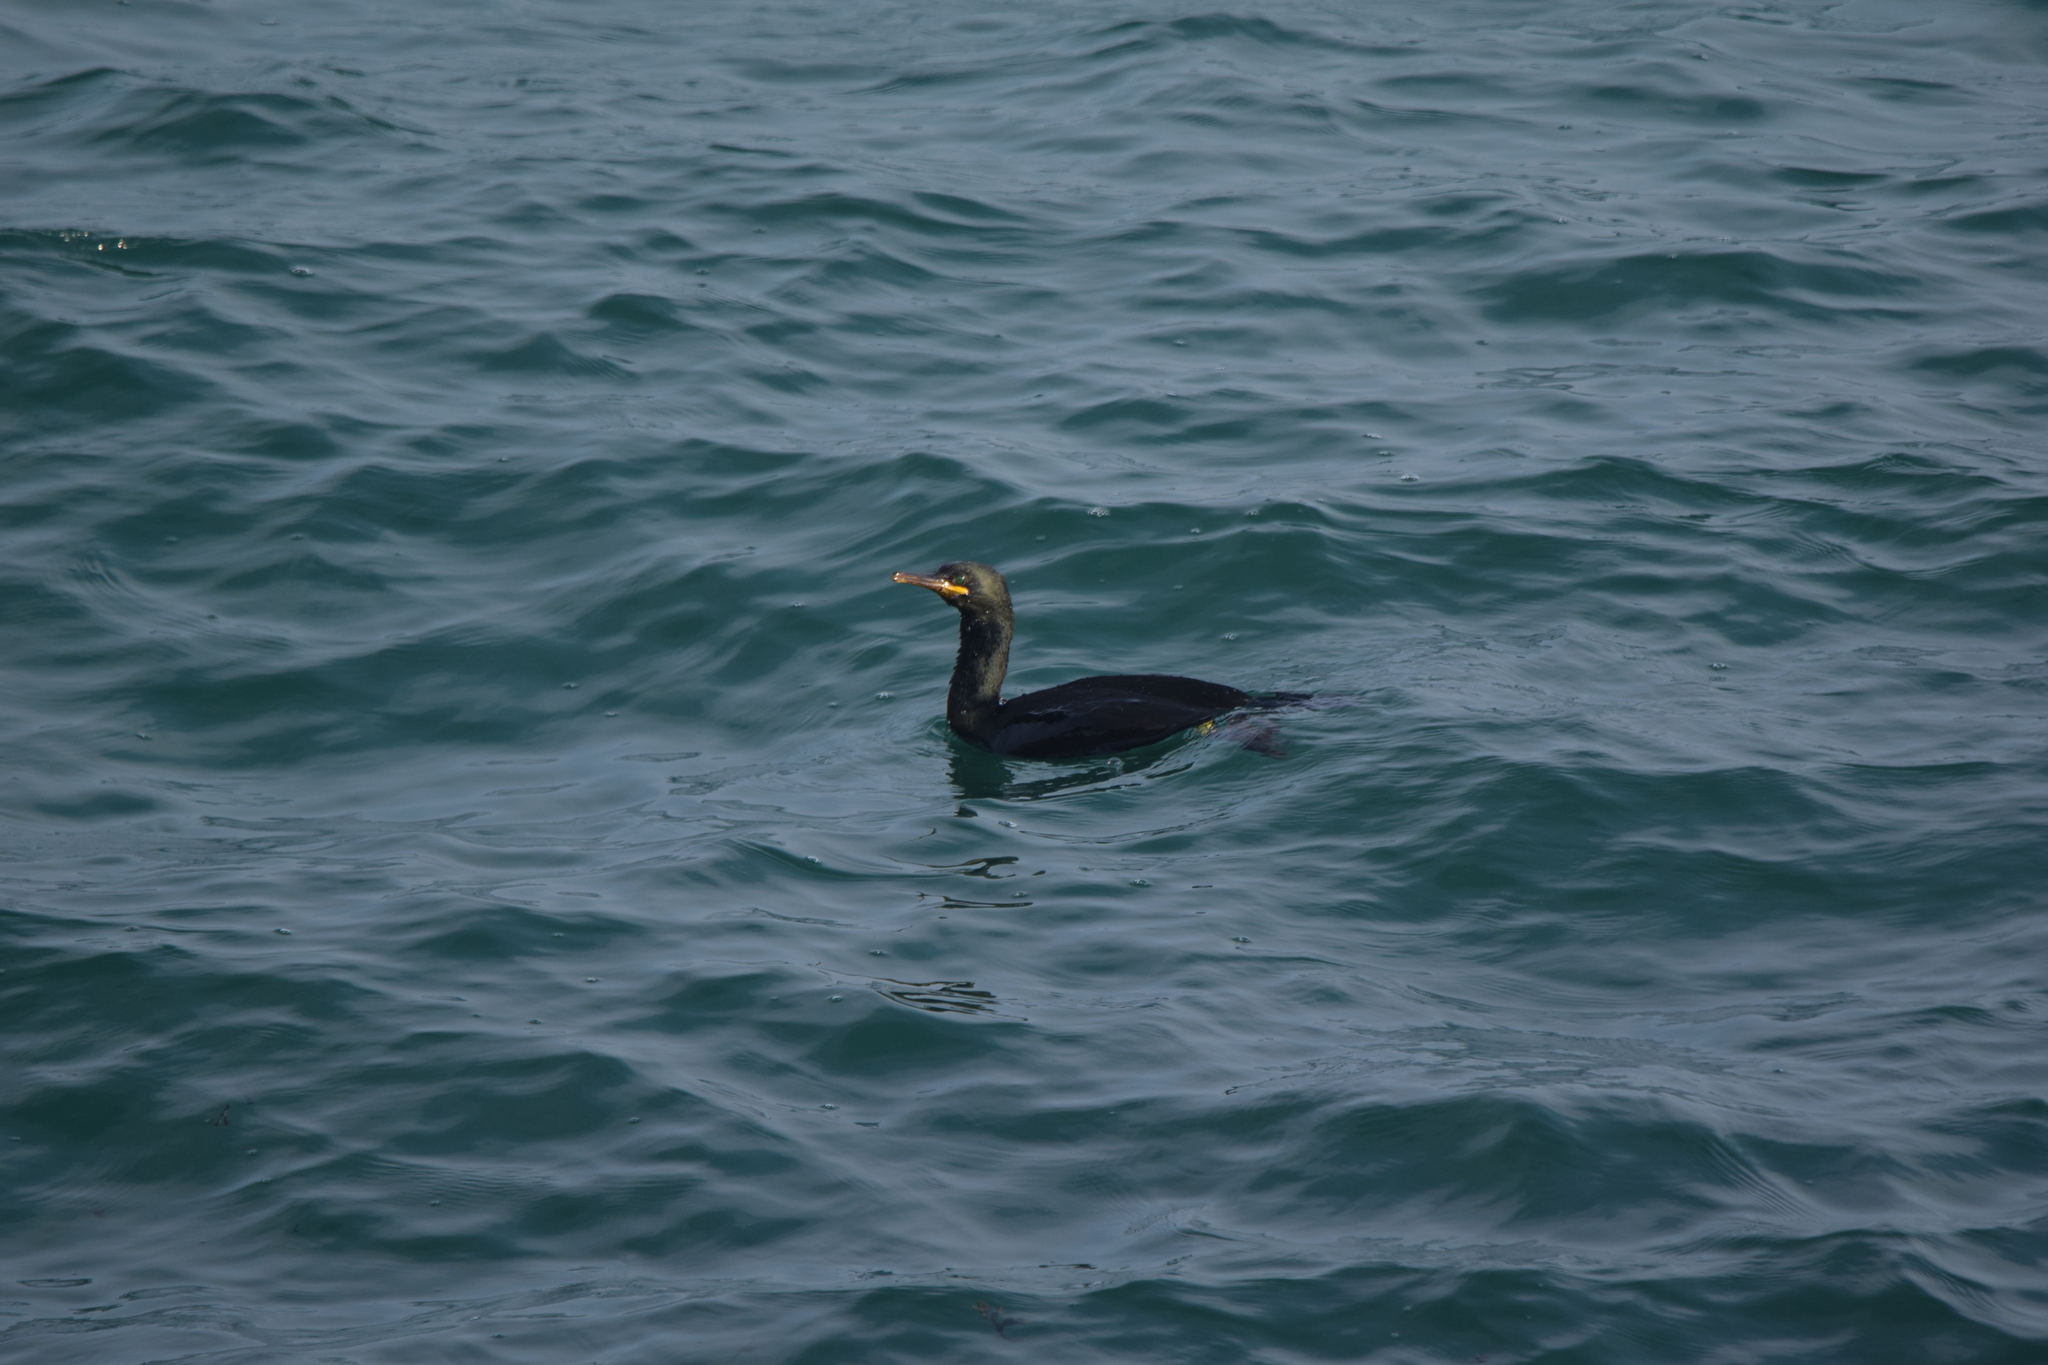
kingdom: Animalia
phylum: Chordata
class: Aves
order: Suliformes
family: Phalacrocoracidae
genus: Phalacrocorax
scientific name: Phalacrocorax aristotelis
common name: European shag
